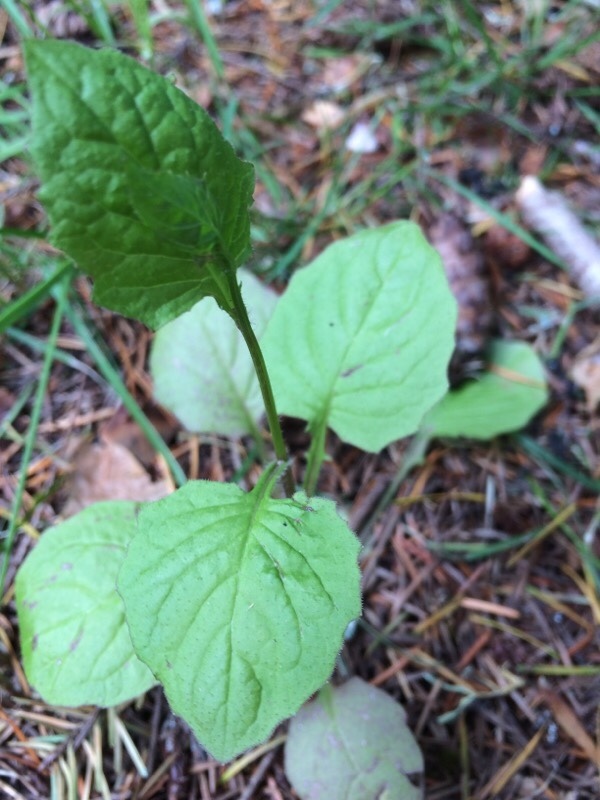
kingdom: Plantae
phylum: Tracheophyta
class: Magnoliopsida
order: Asterales
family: Asteraceae
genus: Lapsana
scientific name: Lapsana communis
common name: Nipplewort
